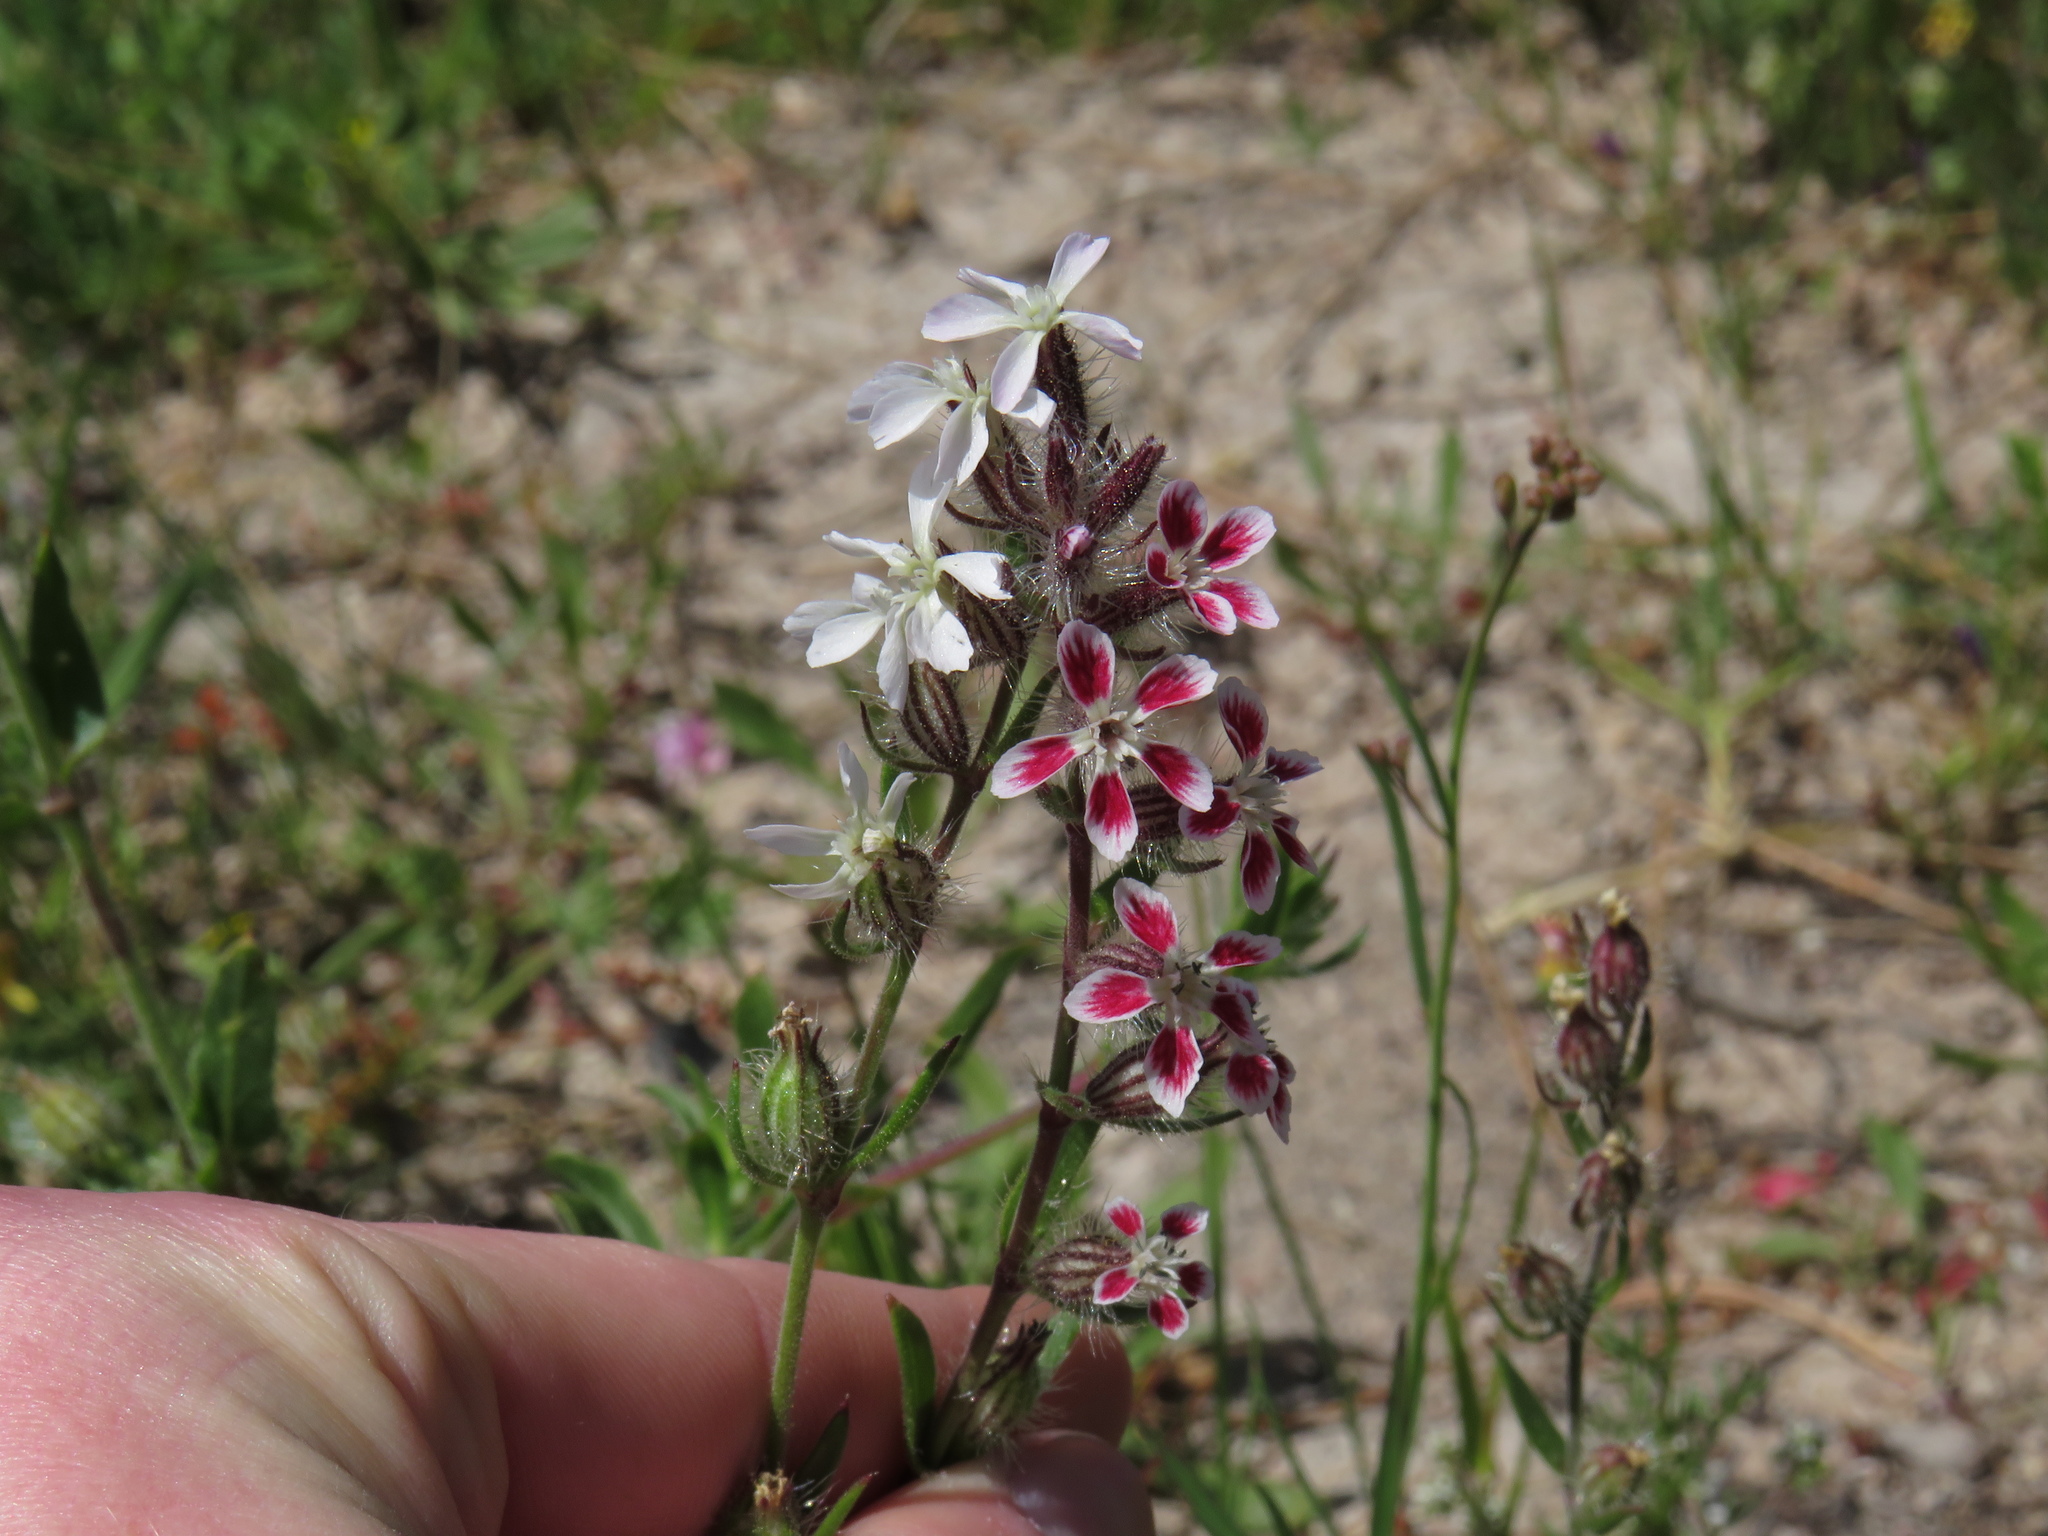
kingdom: Plantae
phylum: Tracheophyta
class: Magnoliopsida
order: Caryophyllales
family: Caryophyllaceae
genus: Silene
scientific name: Silene gallica
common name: Small-flowered catchfly
